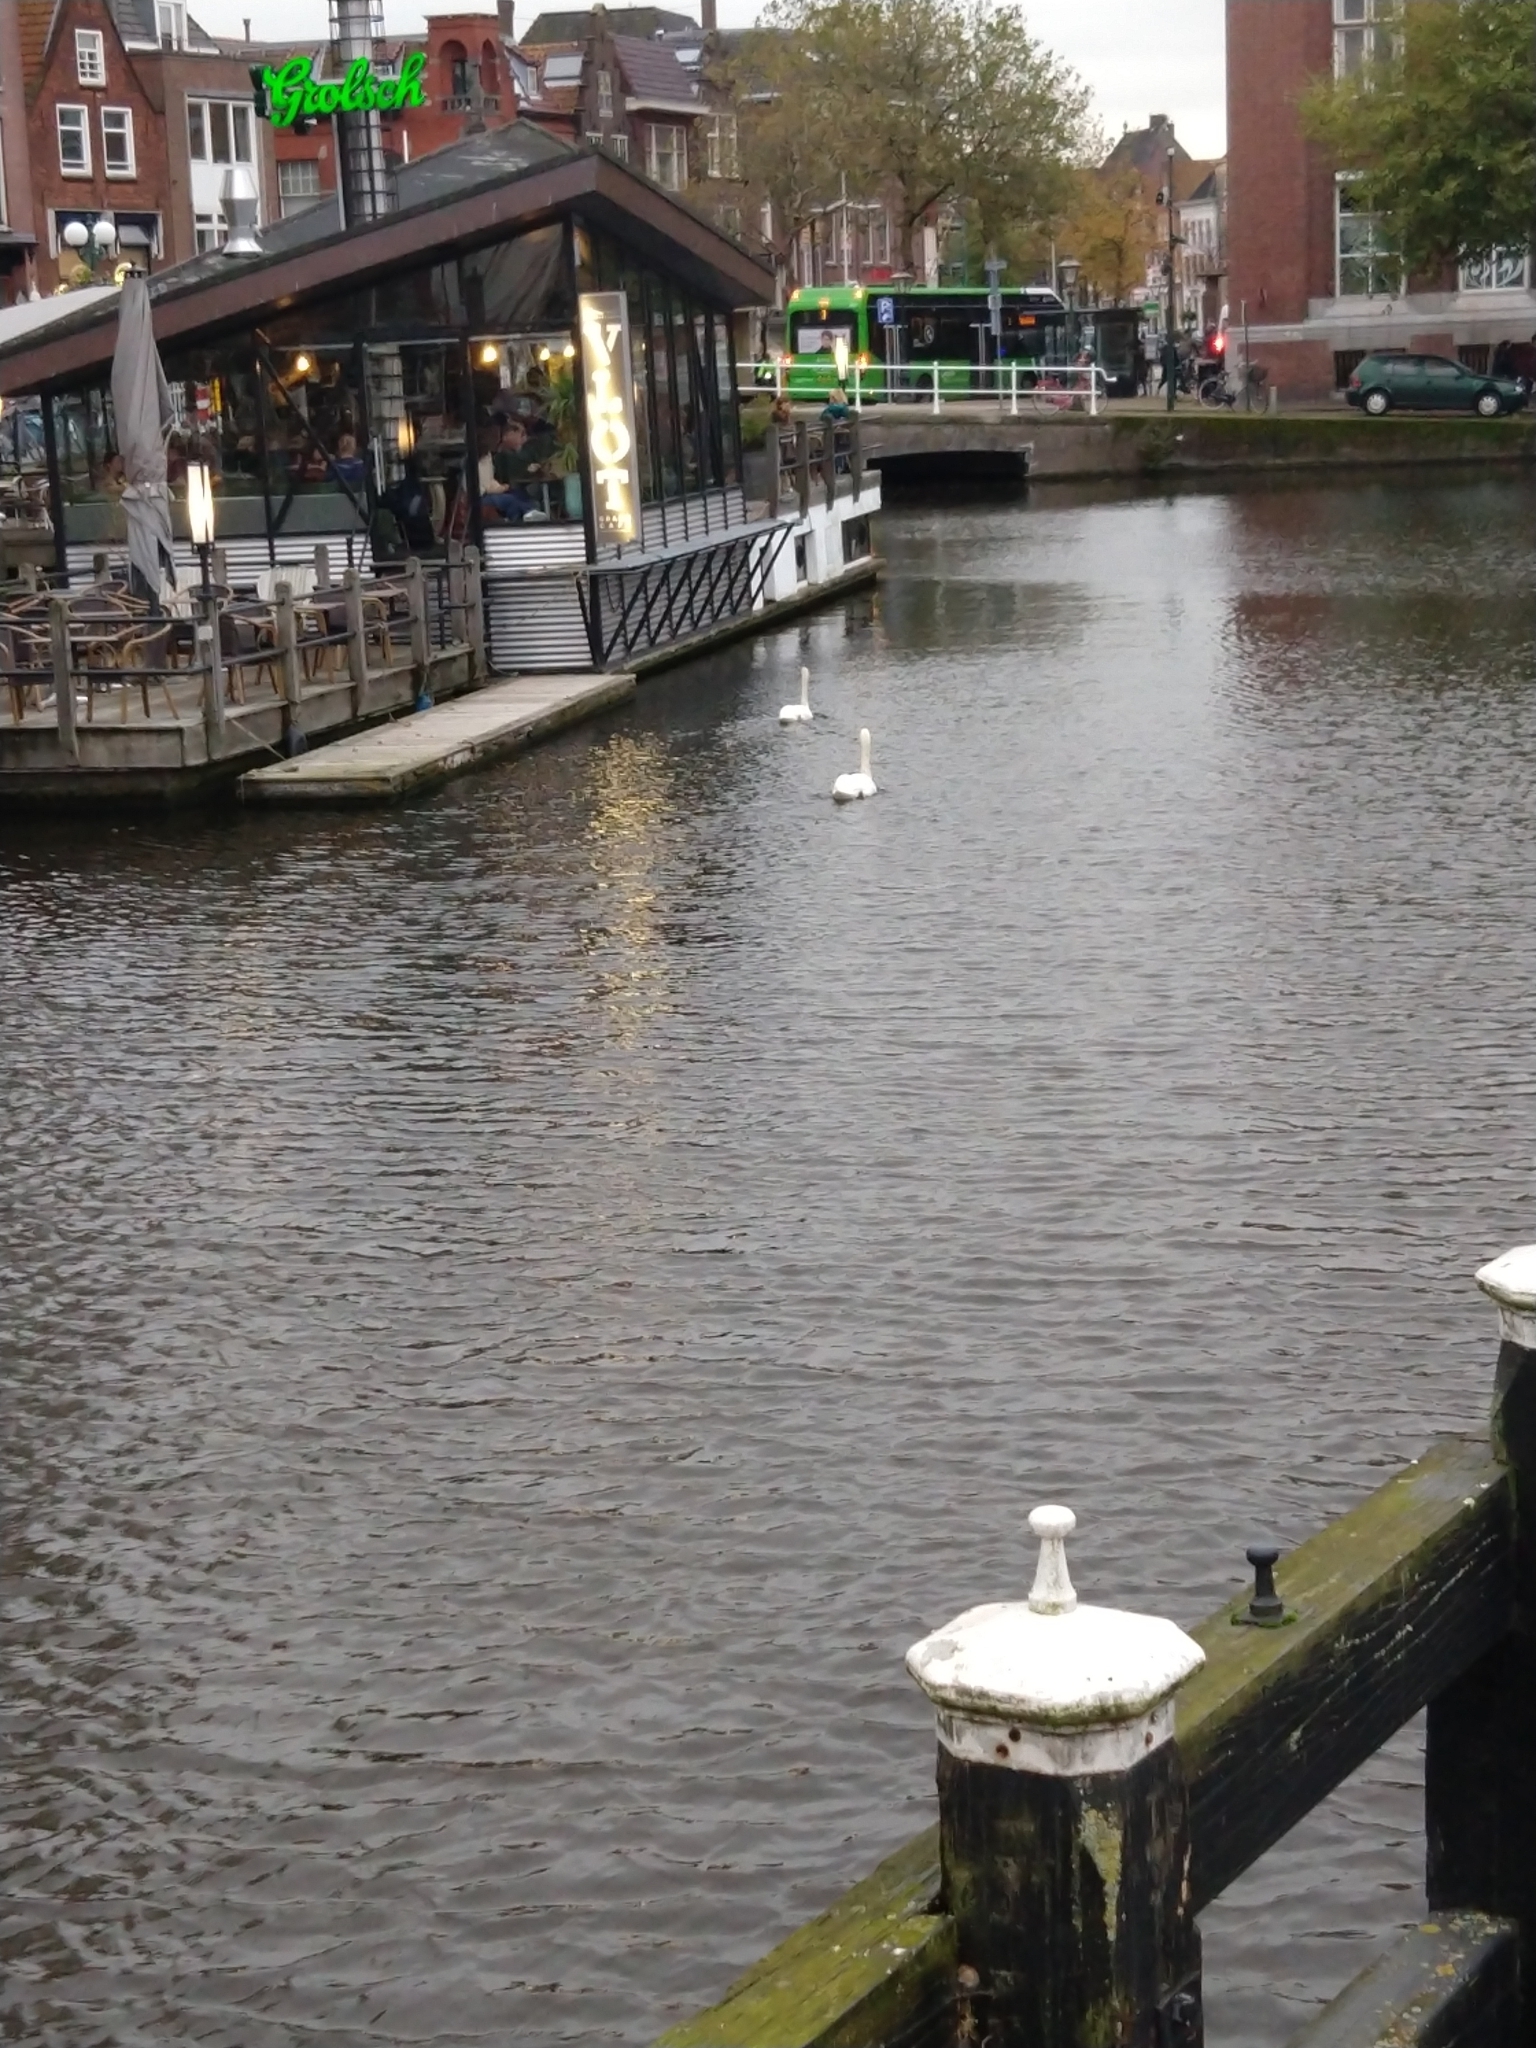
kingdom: Animalia
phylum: Chordata
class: Aves
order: Anseriformes
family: Anatidae
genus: Cygnus
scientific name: Cygnus olor
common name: Mute swan
